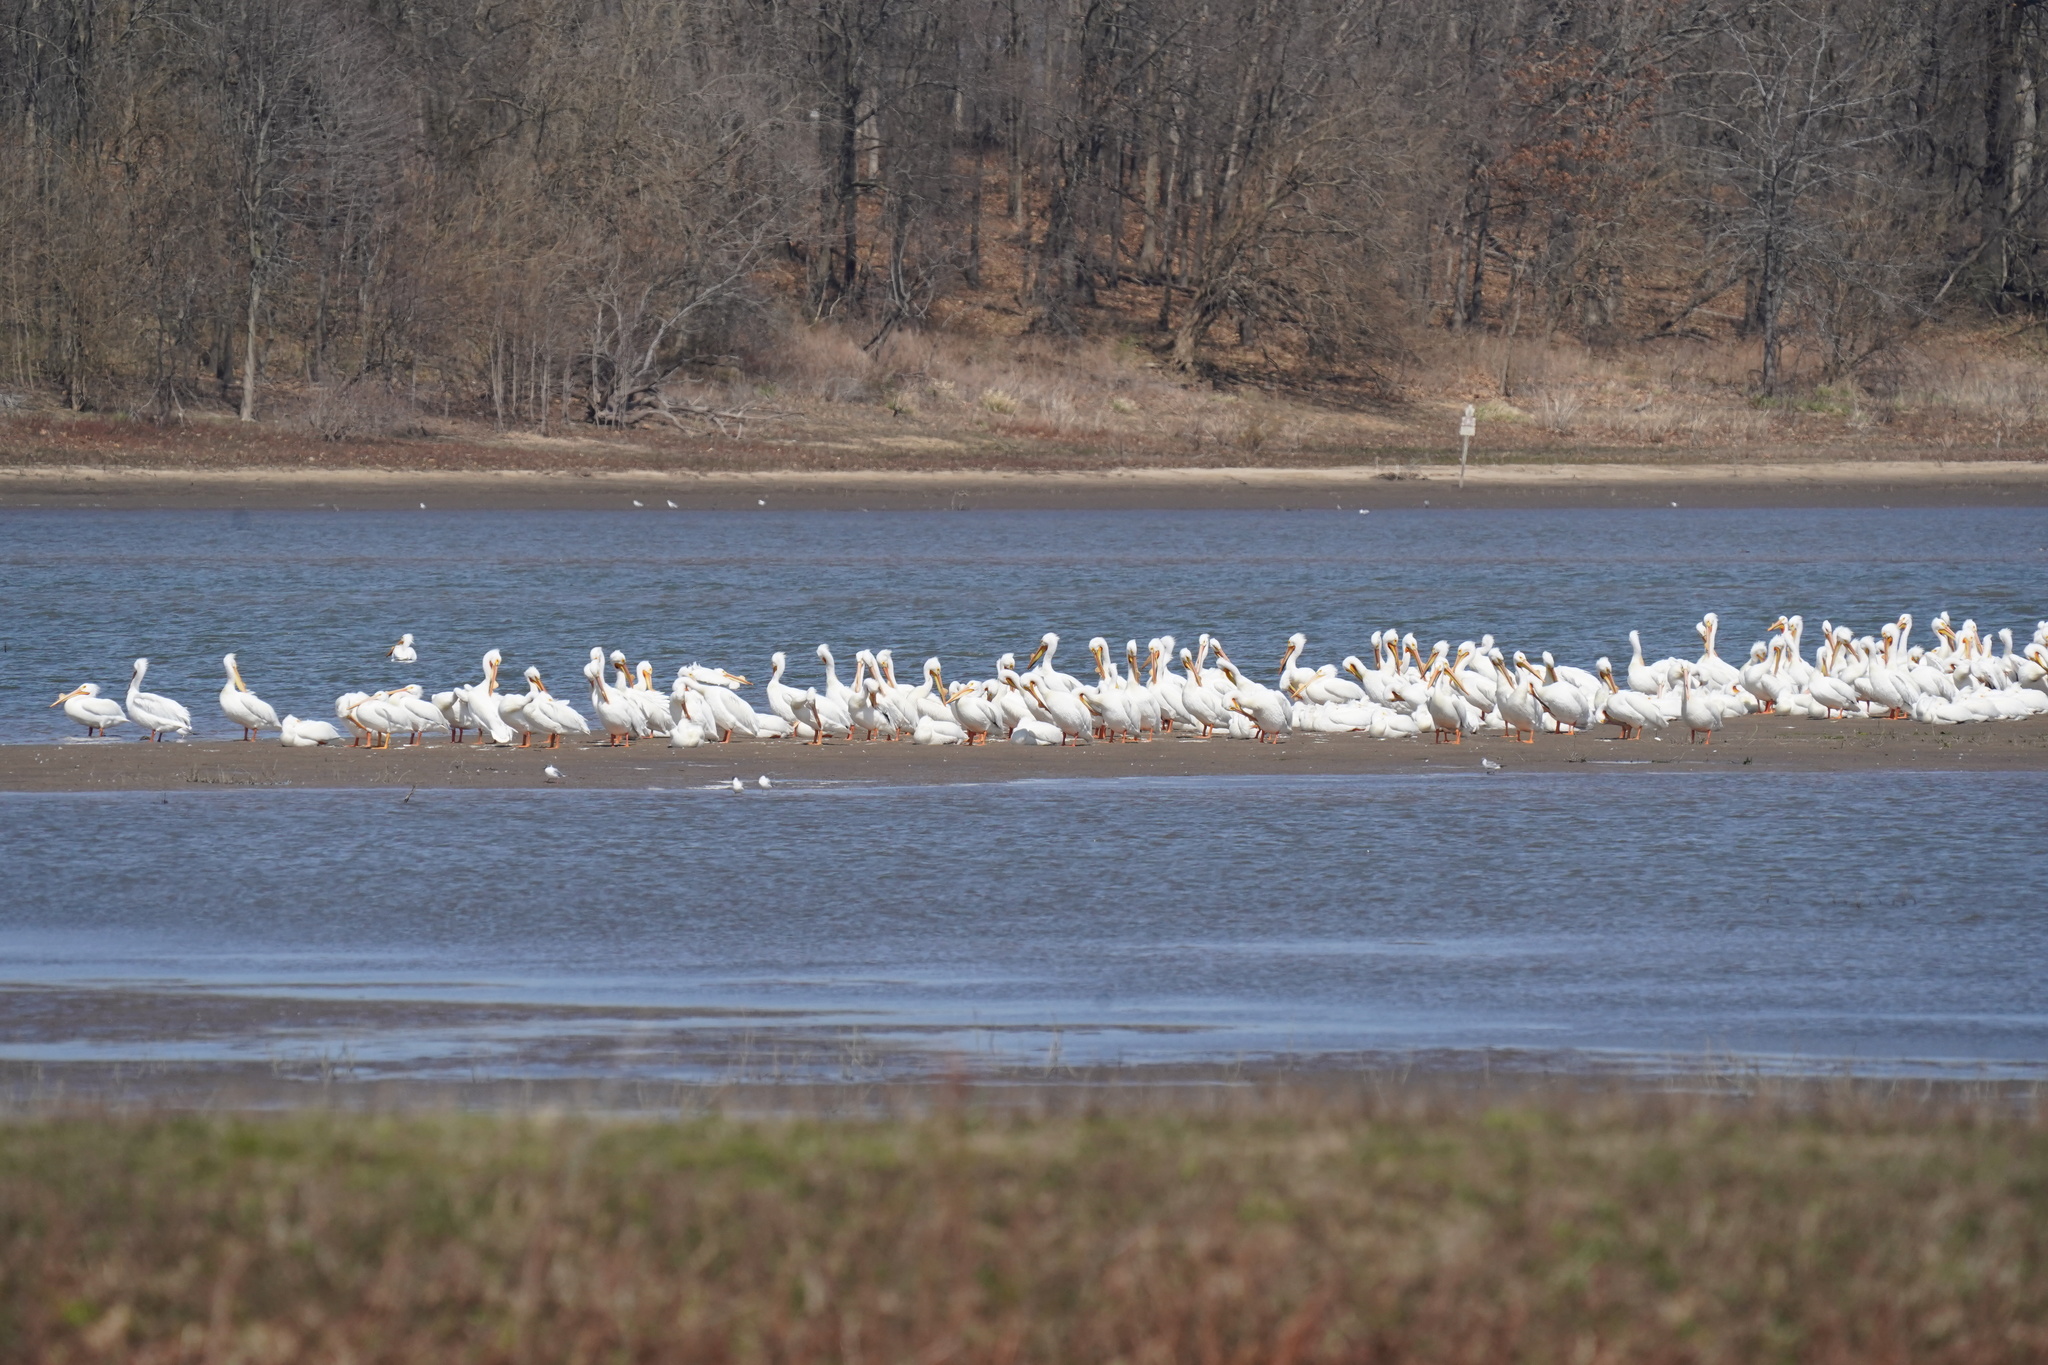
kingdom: Animalia
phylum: Chordata
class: Aves
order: Pelecaniformes
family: Pelecanidae
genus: Pelecanus
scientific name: Pelecanus erythrorhynchos
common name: American white pelican
